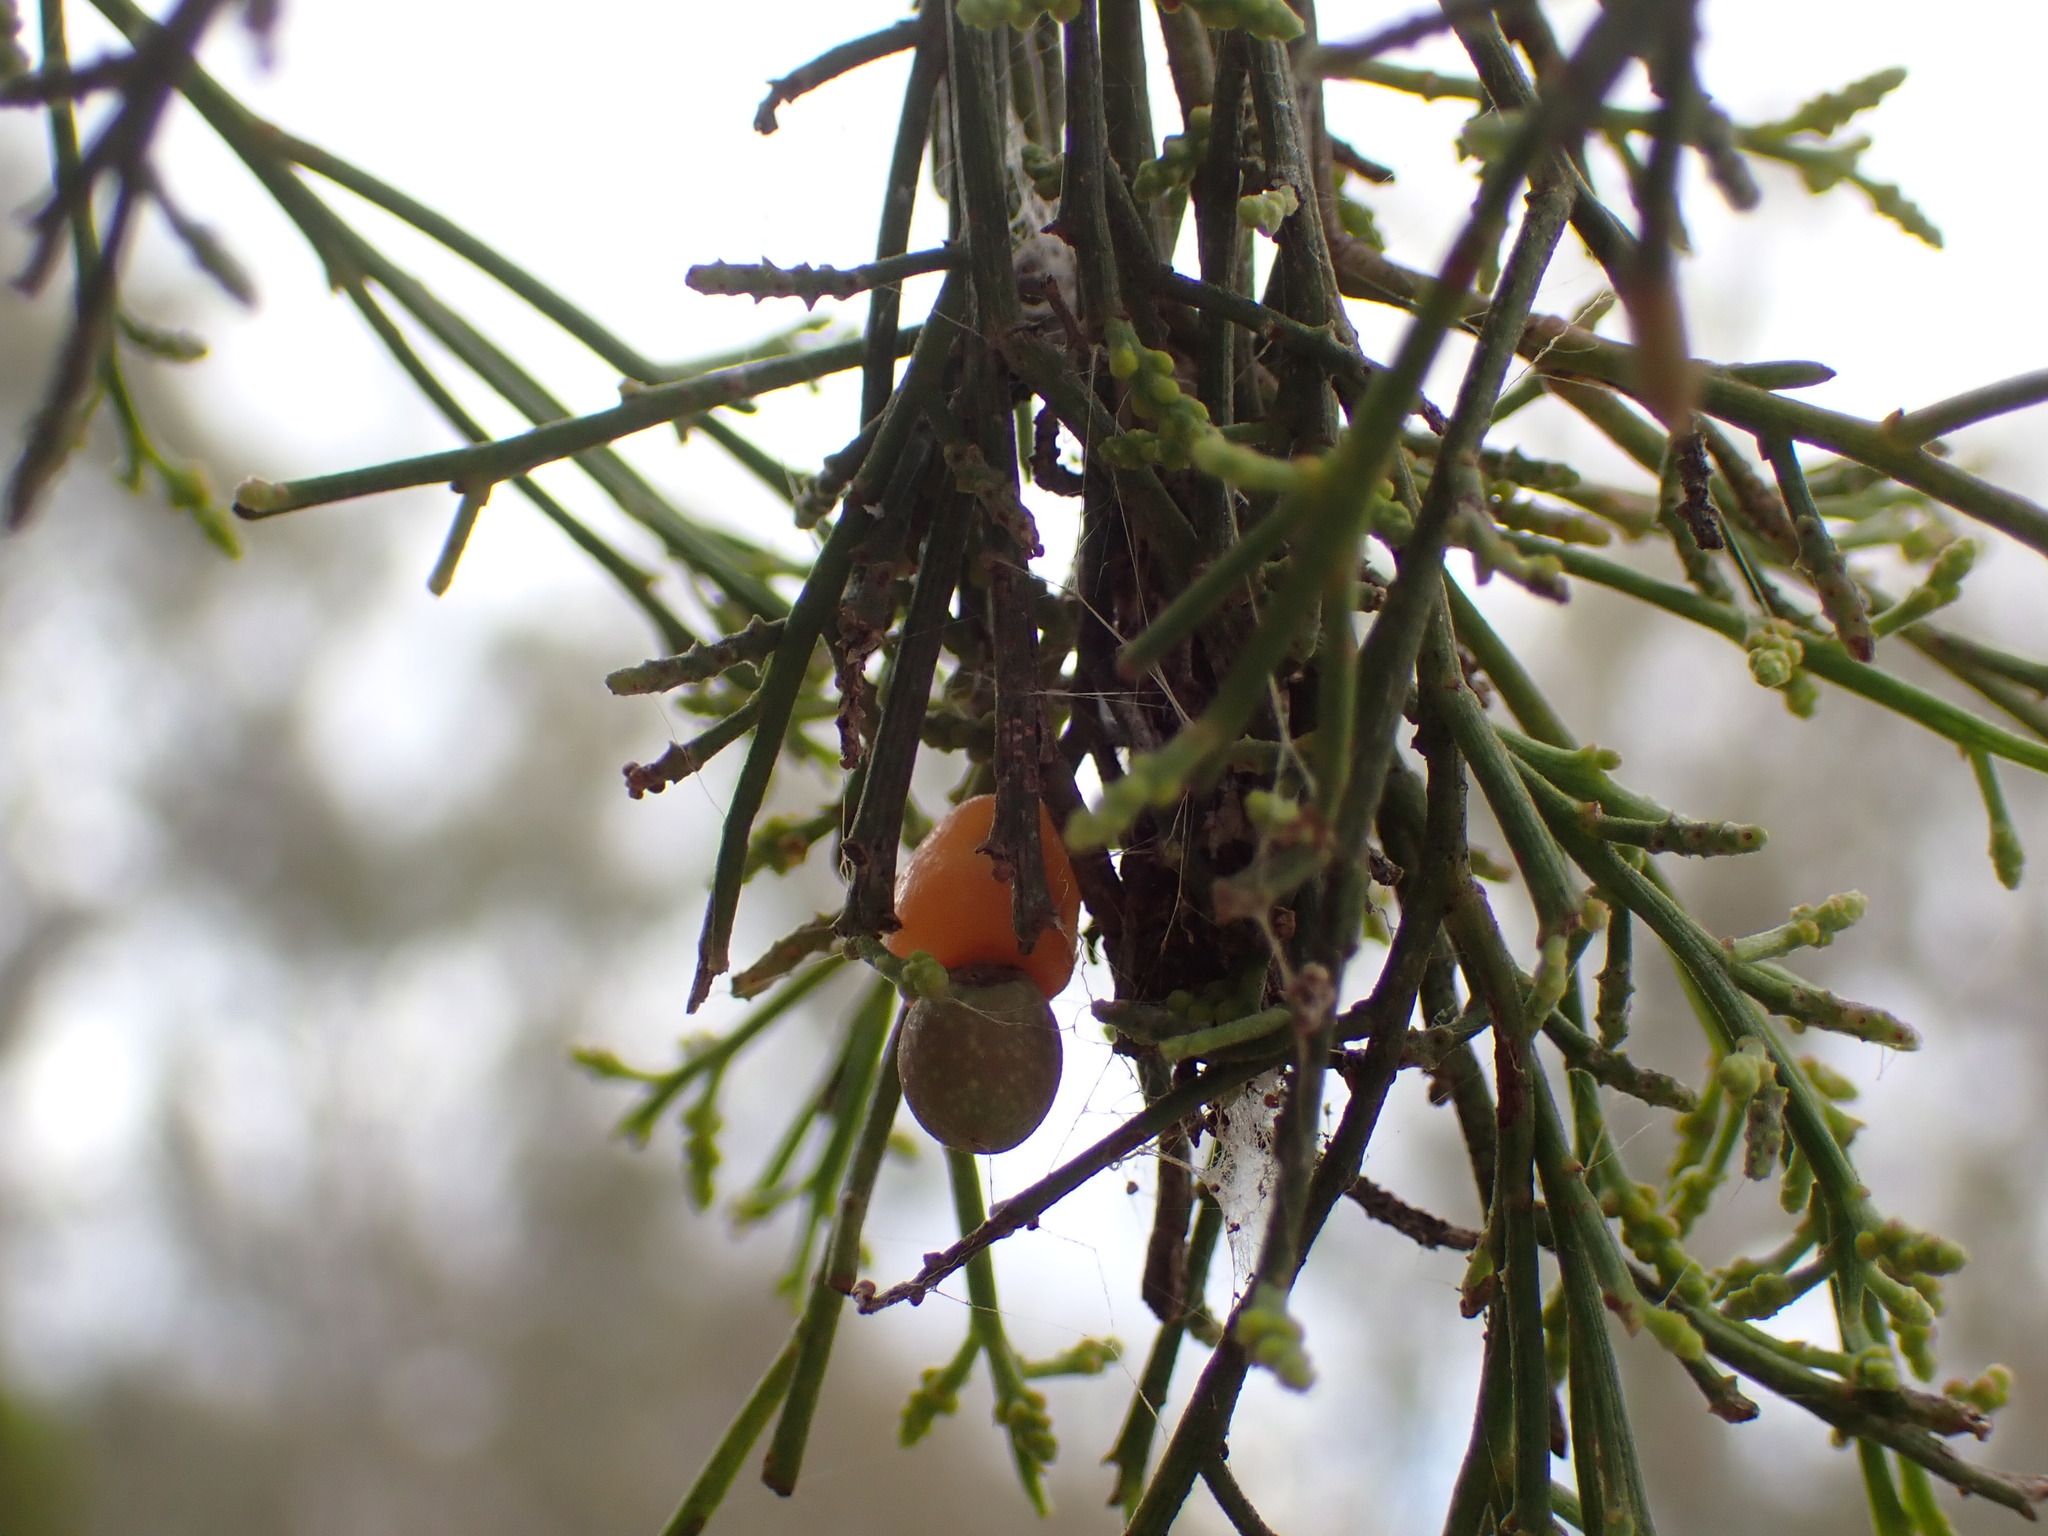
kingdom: Plantae
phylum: Tracheophyta
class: Magnoliopsida
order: Santalales
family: Santalaceae
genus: Exocarpos
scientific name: Exocarpos cupressiformis
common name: Cherry ballart
